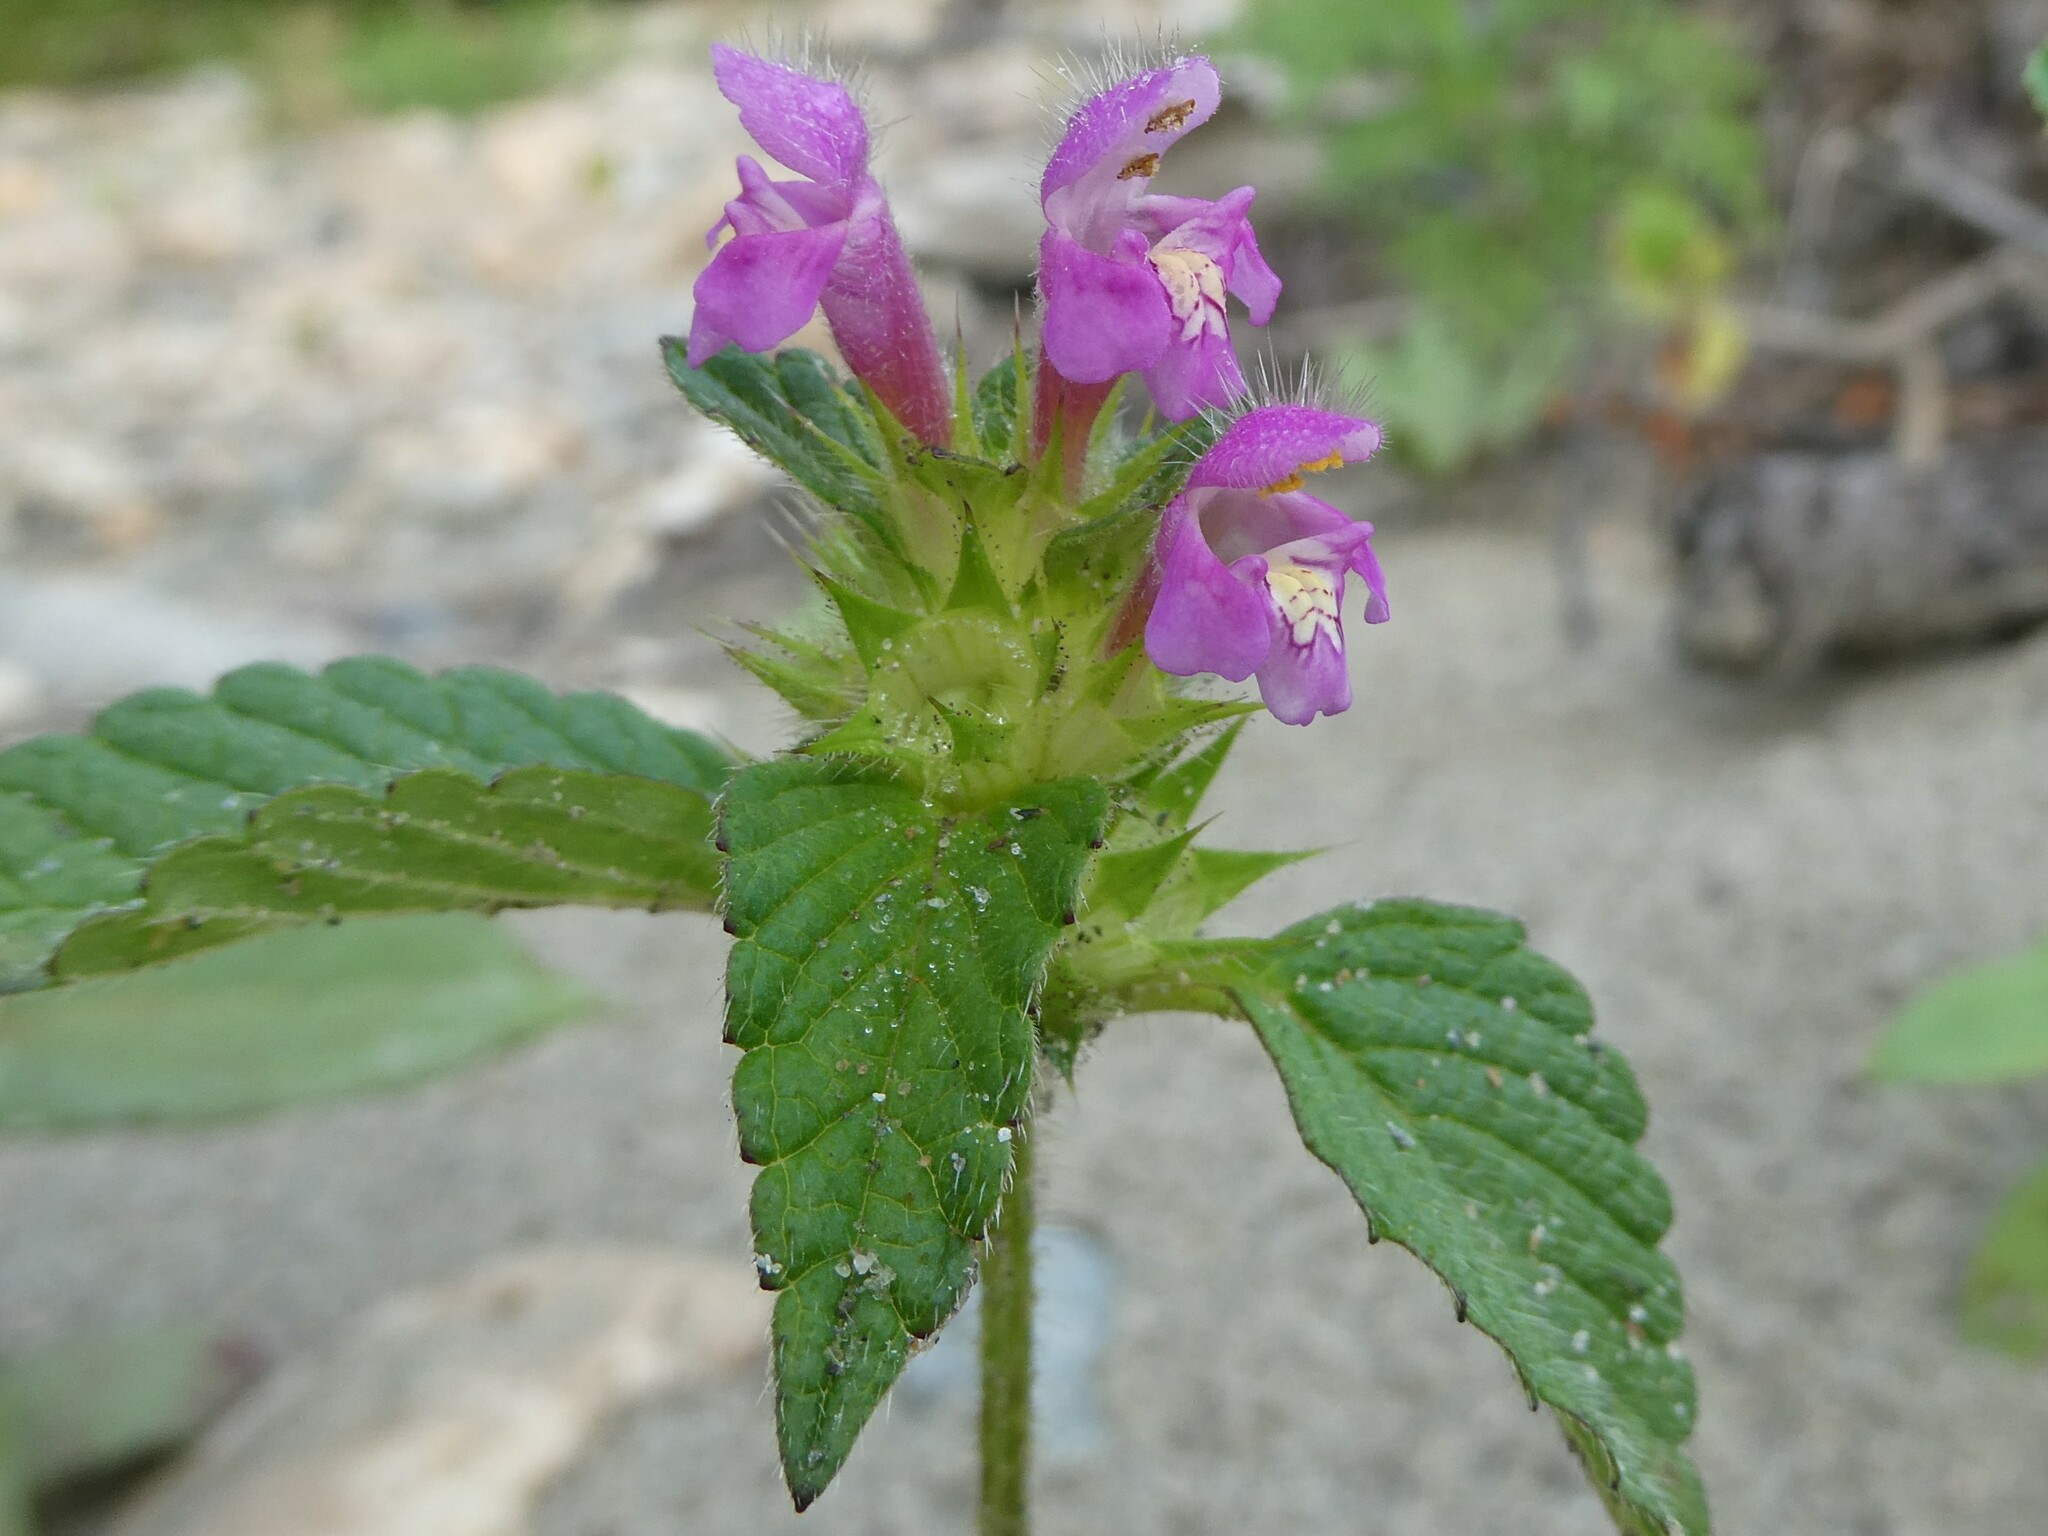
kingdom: Plantae
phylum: Tracheophyta
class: Magnoliopsida
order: Lamiales
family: Lamiaceae
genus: Galeopsis
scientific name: Galeopsis bifida
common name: Bifid hemp-nettle
